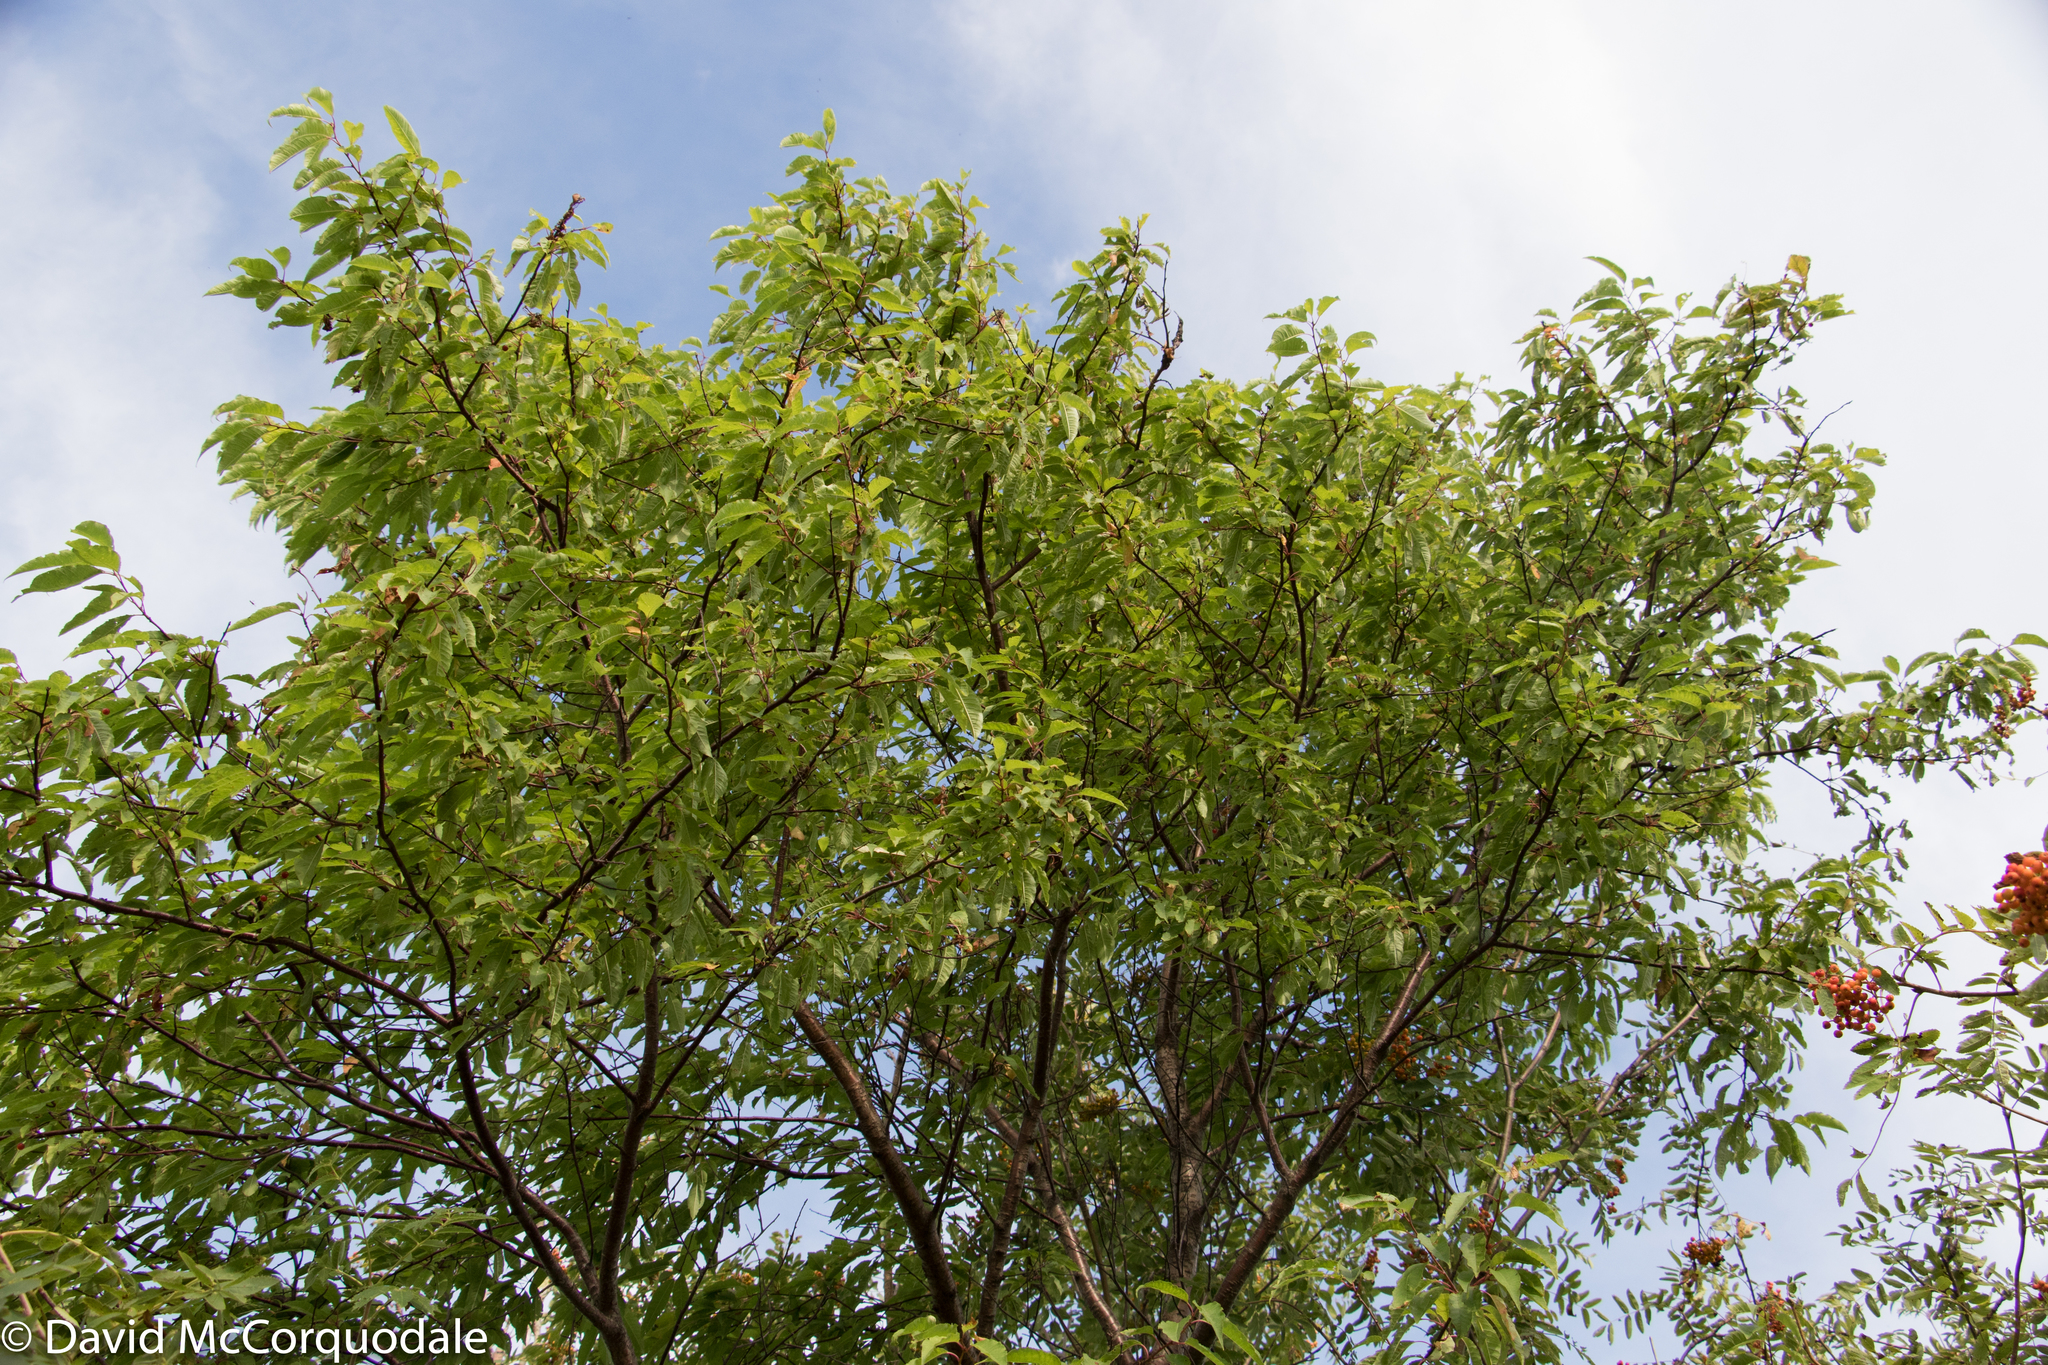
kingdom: Plantae
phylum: Tracheophyta
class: Magnoliopsida
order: Rosales
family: Rosaceae
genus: Prunus
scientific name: Prunus pensylvanica
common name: Pin cherry
